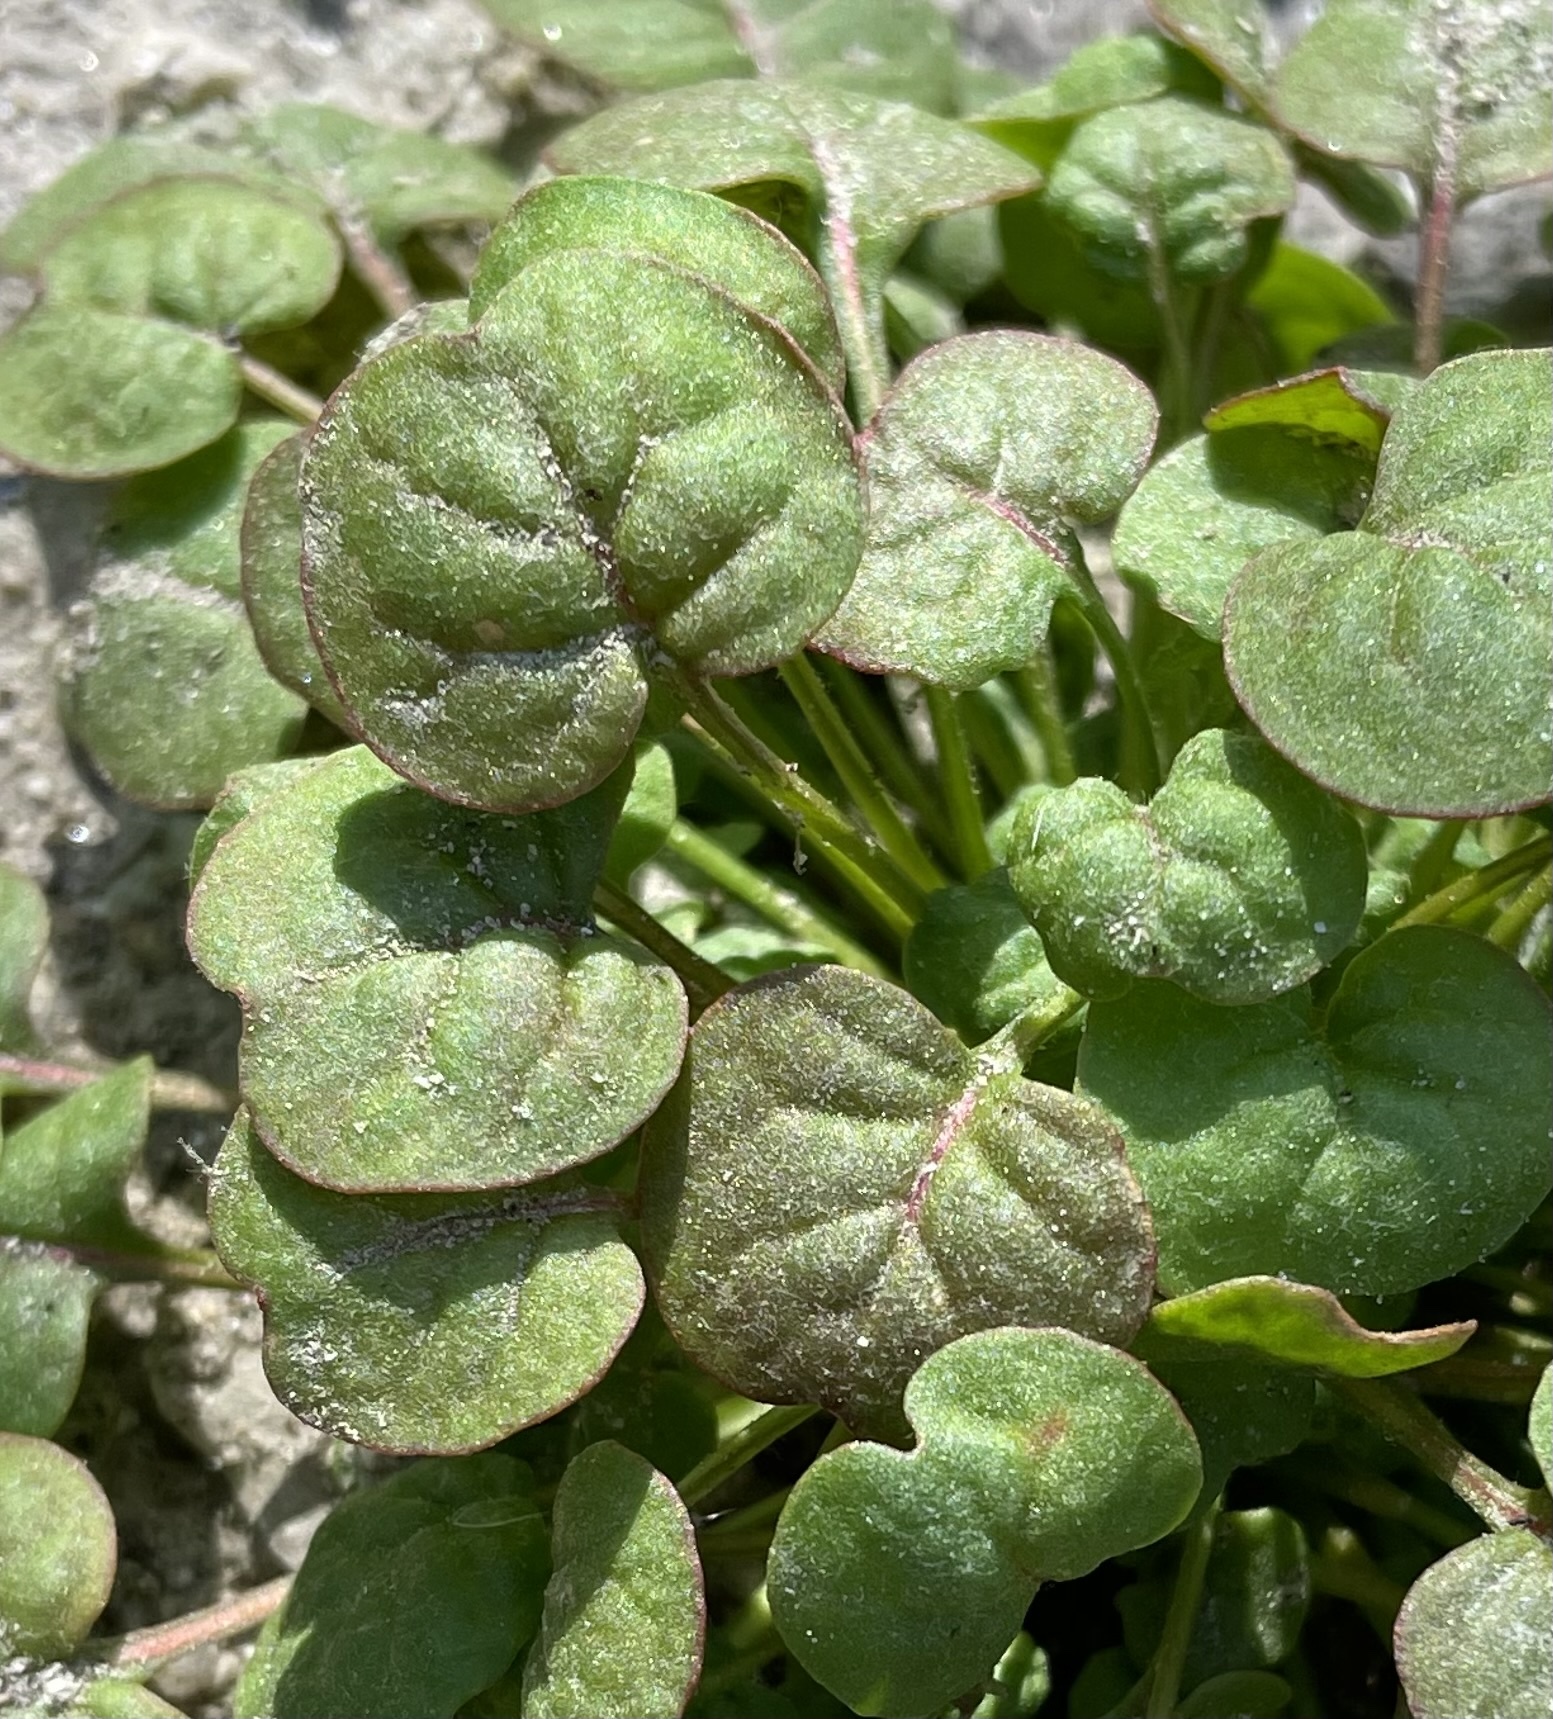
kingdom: Plantae
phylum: Tracheophyta
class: Magnoliopsida
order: Caryophyllales
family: Polygonaceae
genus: Eriogonum
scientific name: Eriogonum nortonii
